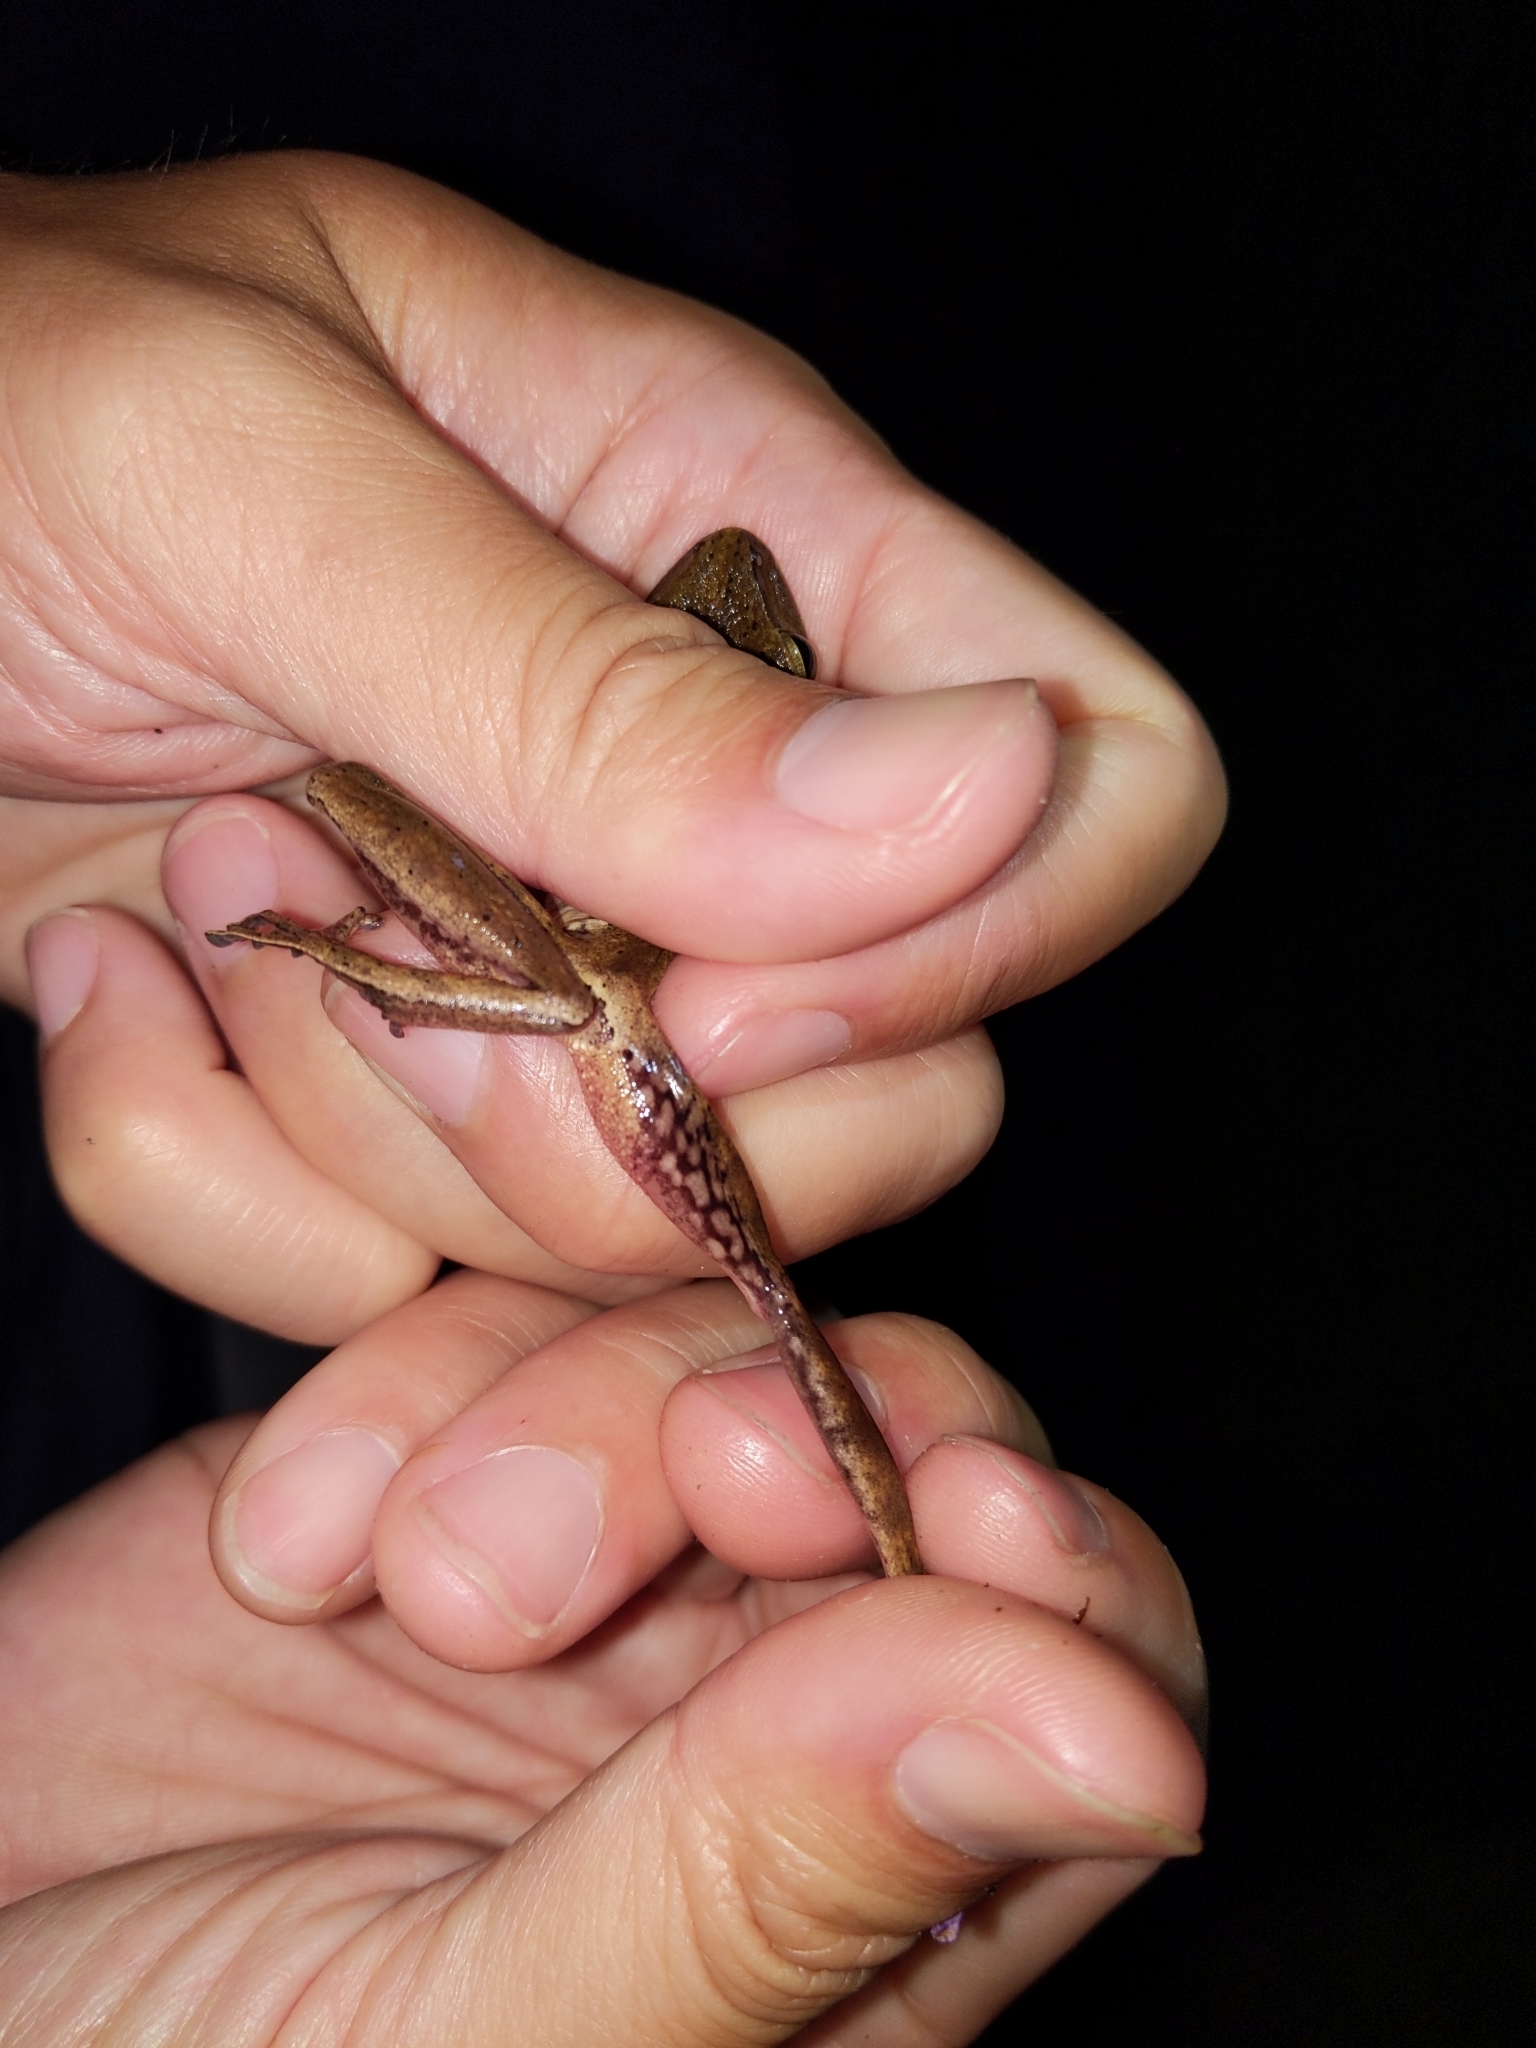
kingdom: Animalia
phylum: Chordata
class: Amphibia
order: Anura
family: Rhacophoridae
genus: Polypedates
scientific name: Polypedates braueri
